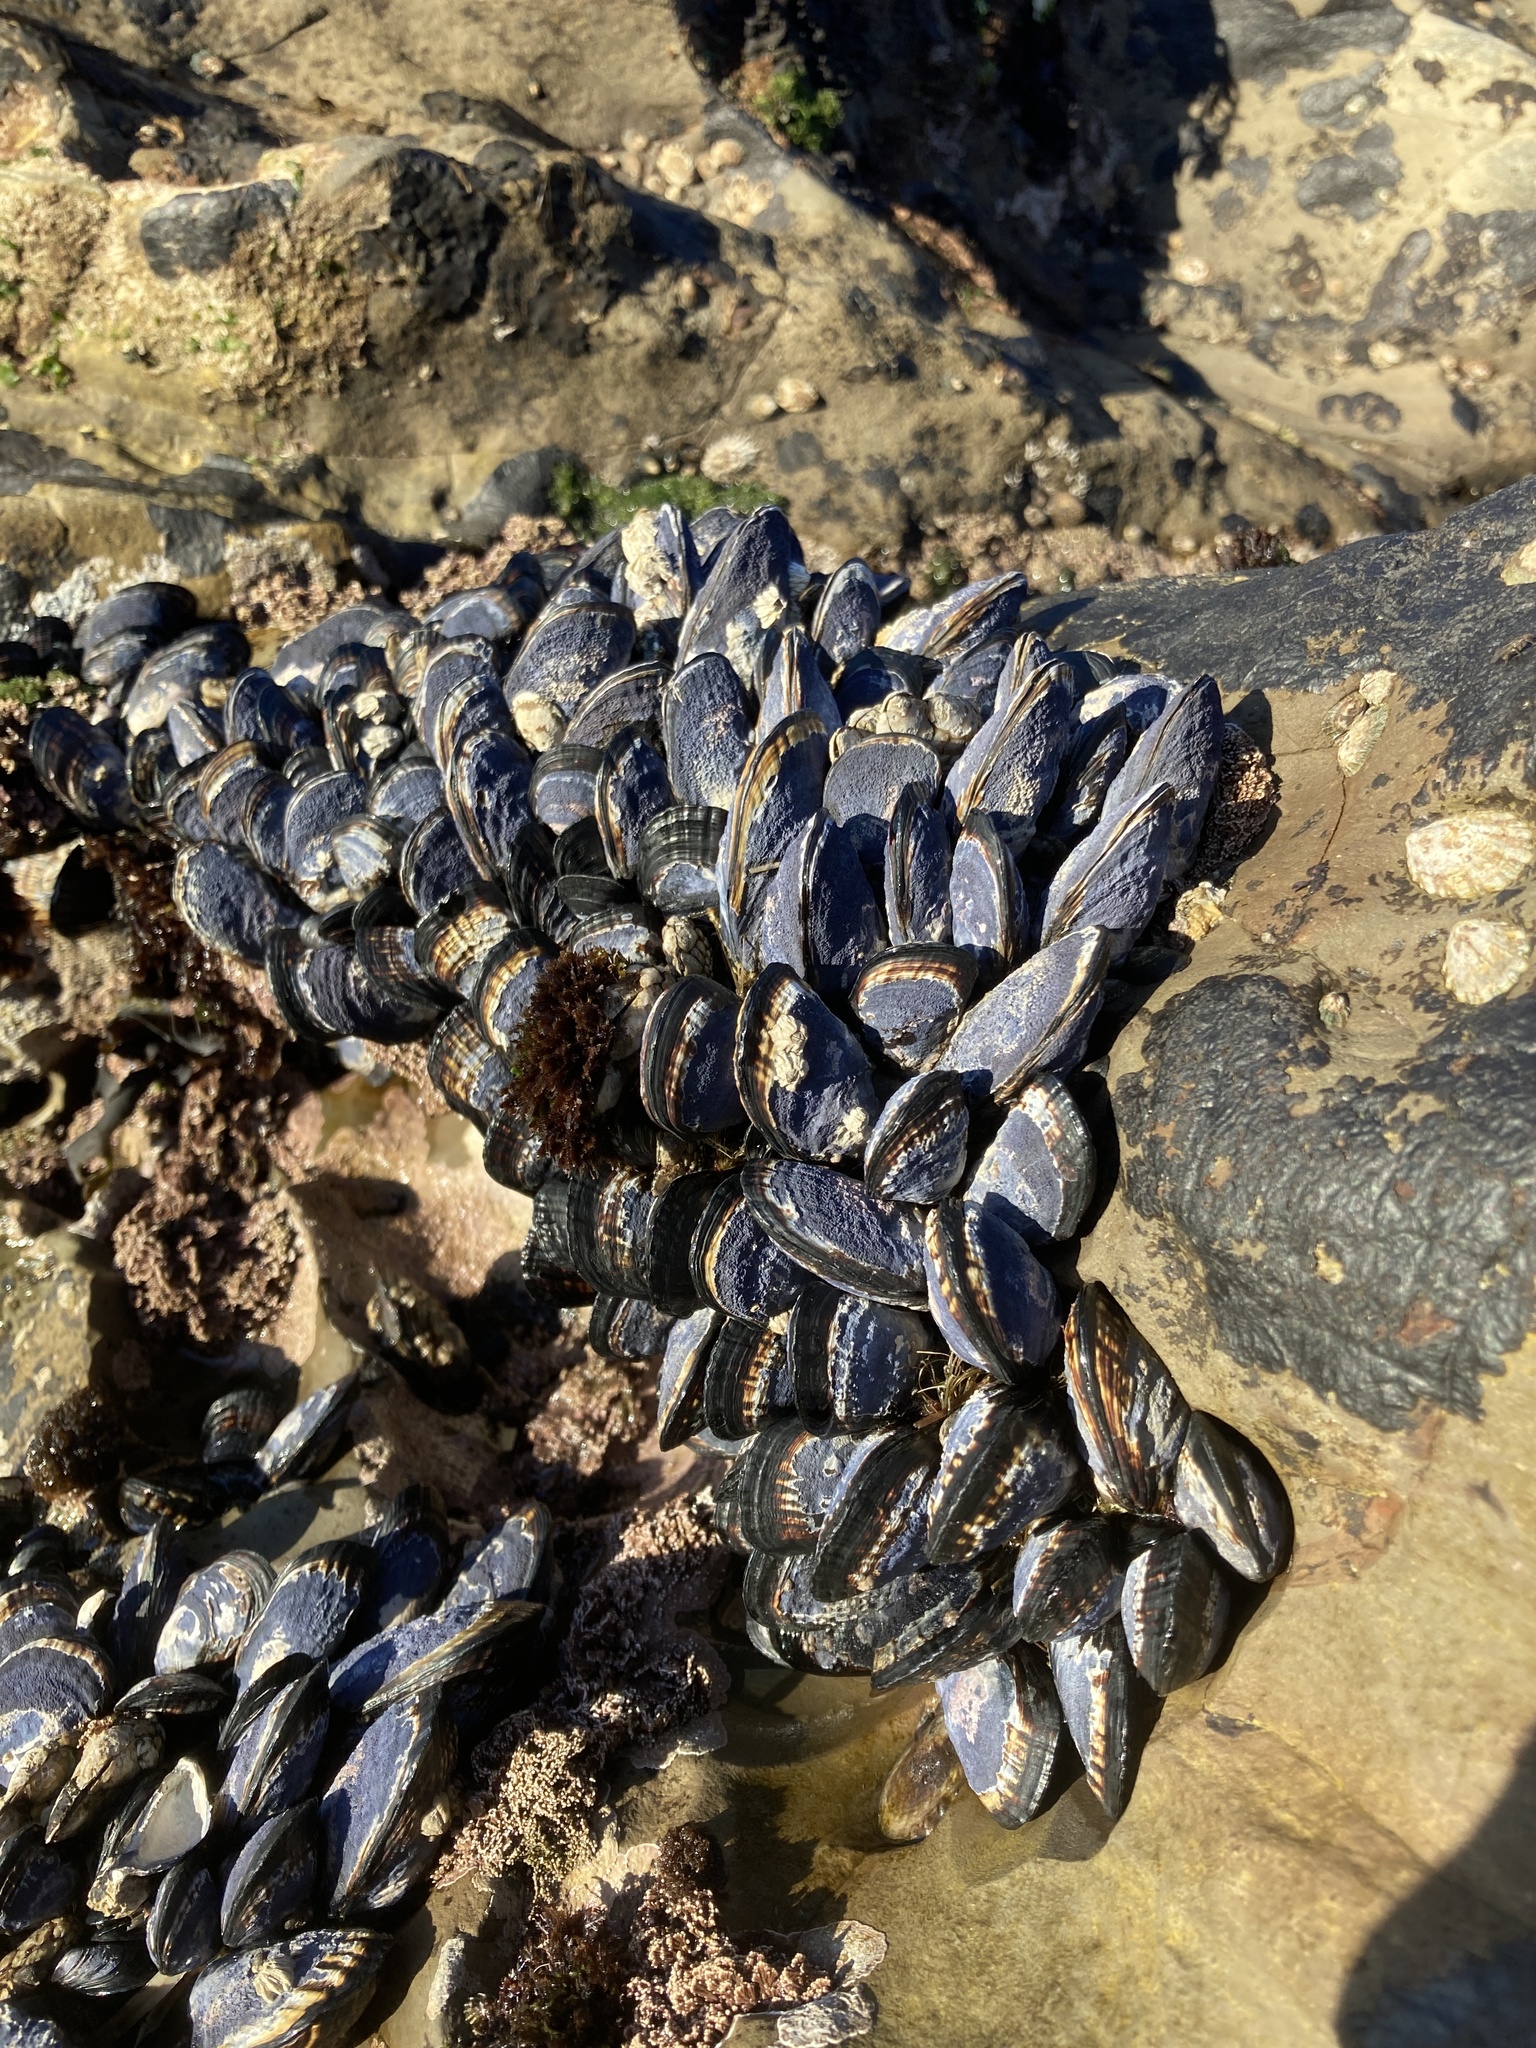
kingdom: Animalia
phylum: Mollusca
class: Bivalvia
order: Mytilida
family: Mytilidae
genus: Mytilus
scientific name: Mytilus californianus
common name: California mussel
